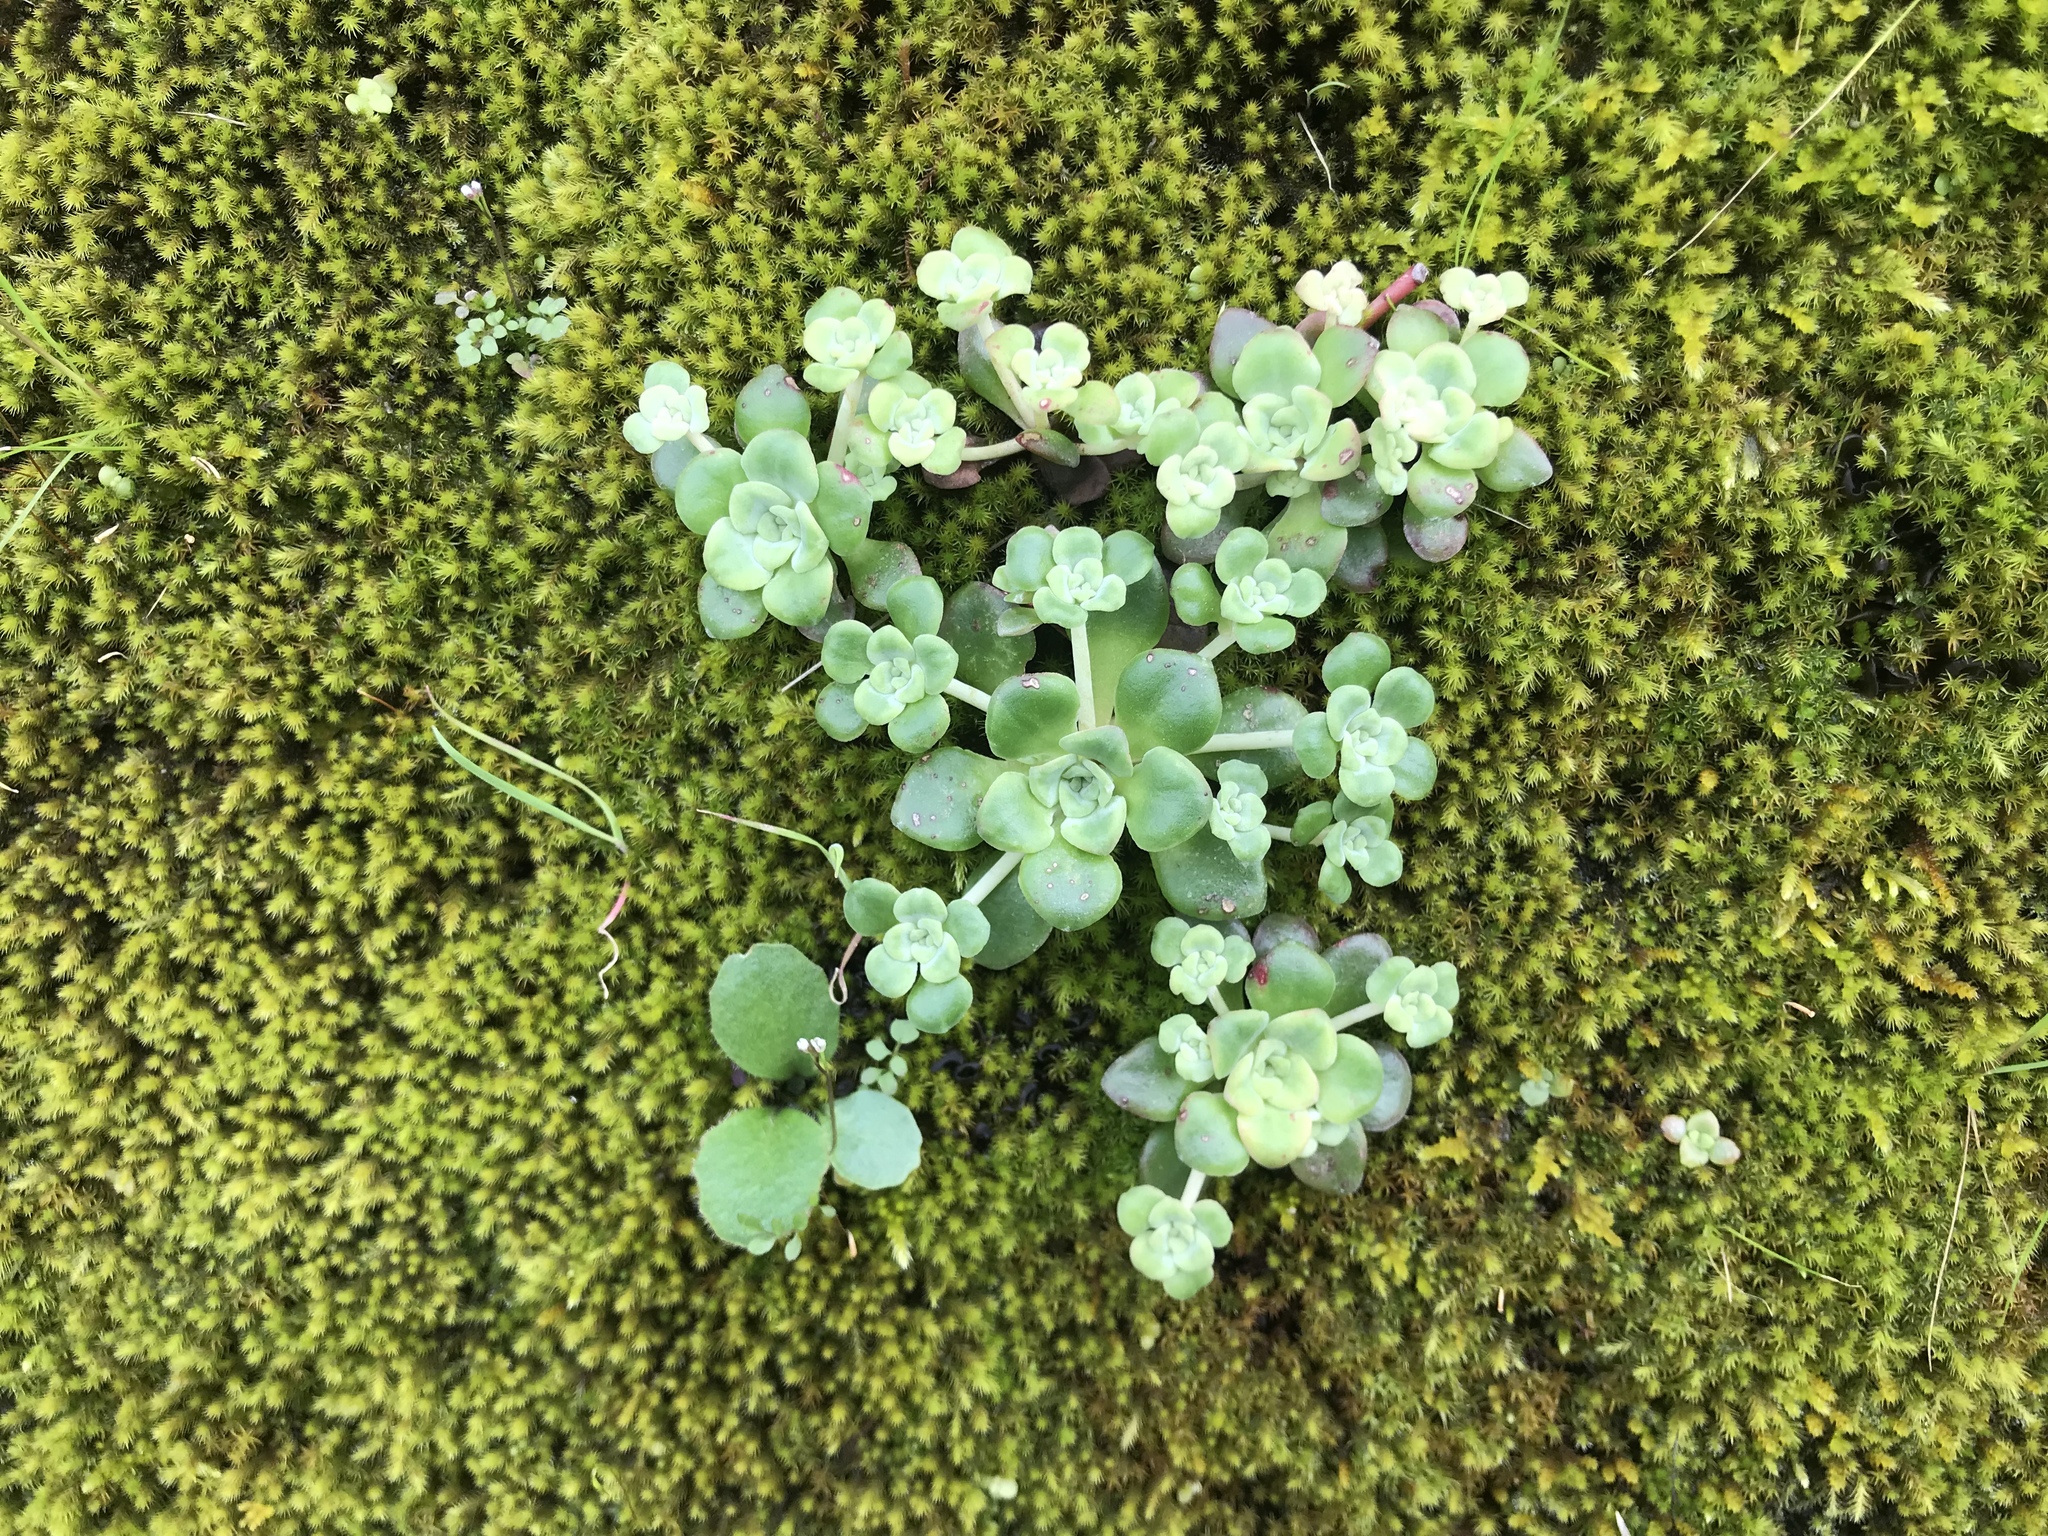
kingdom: Plantae
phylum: Tracheophyta
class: Magnoliopsida
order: Saxifragales
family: Crassulaceae
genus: Sedum
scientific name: Sedum spathulifolium
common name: Colorado stonecrop
